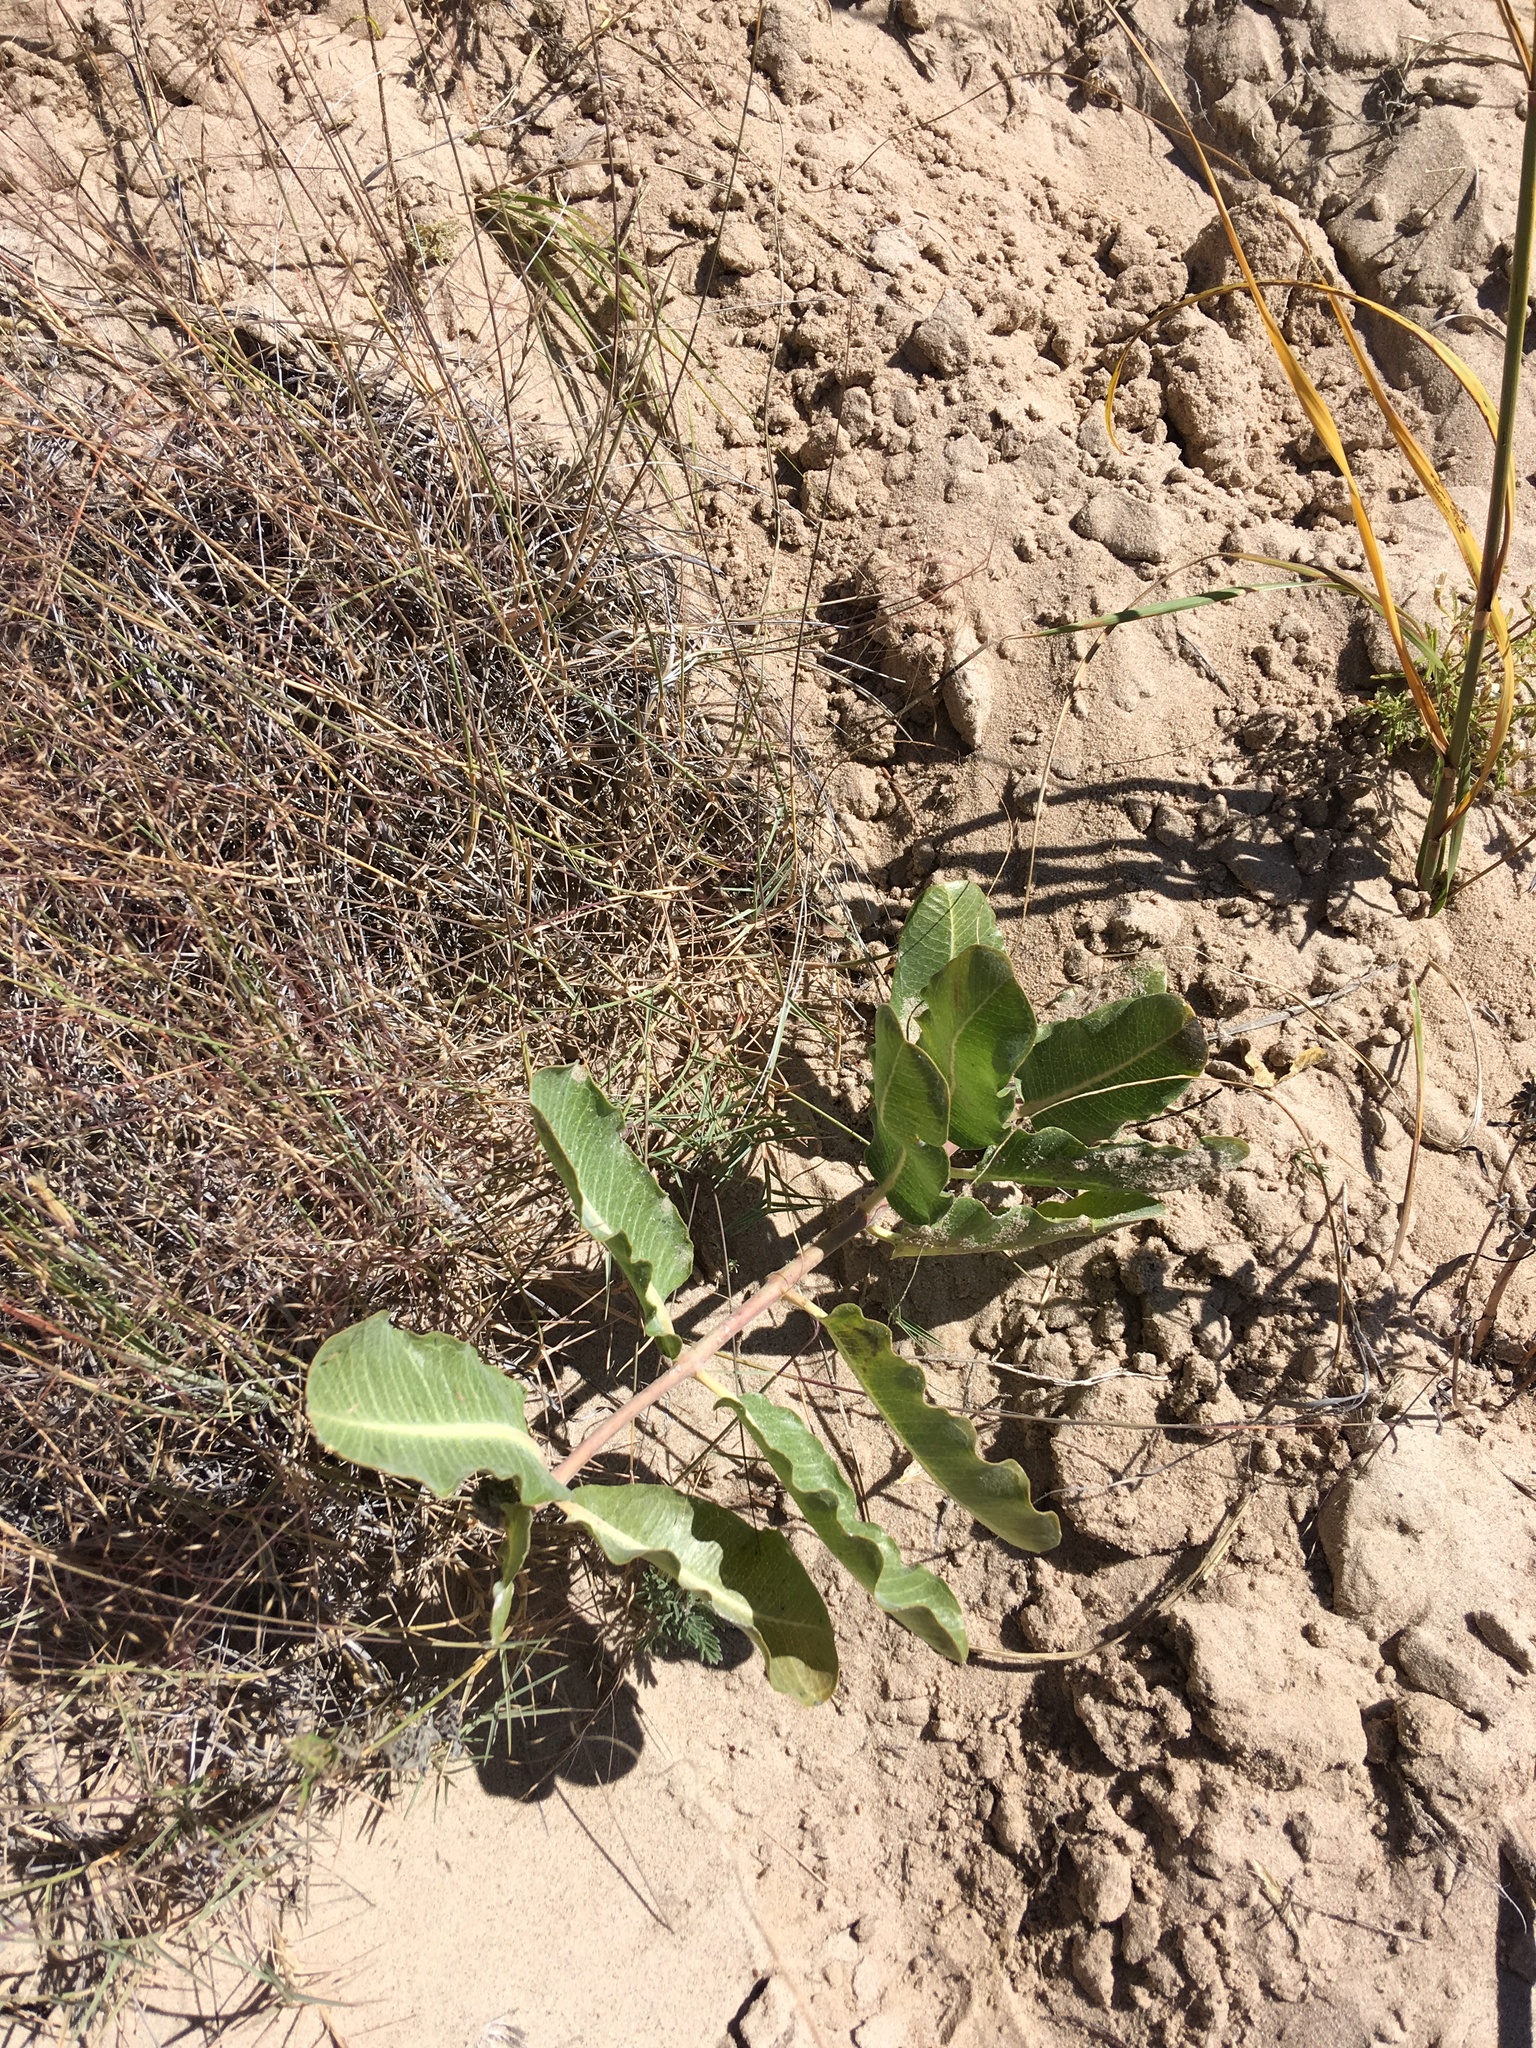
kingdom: Plantae
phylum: Tracheophyta
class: Magnoliopsida
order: Gentianales
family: Apocynaceae
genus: Asclepias
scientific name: Asclepias arenaria
